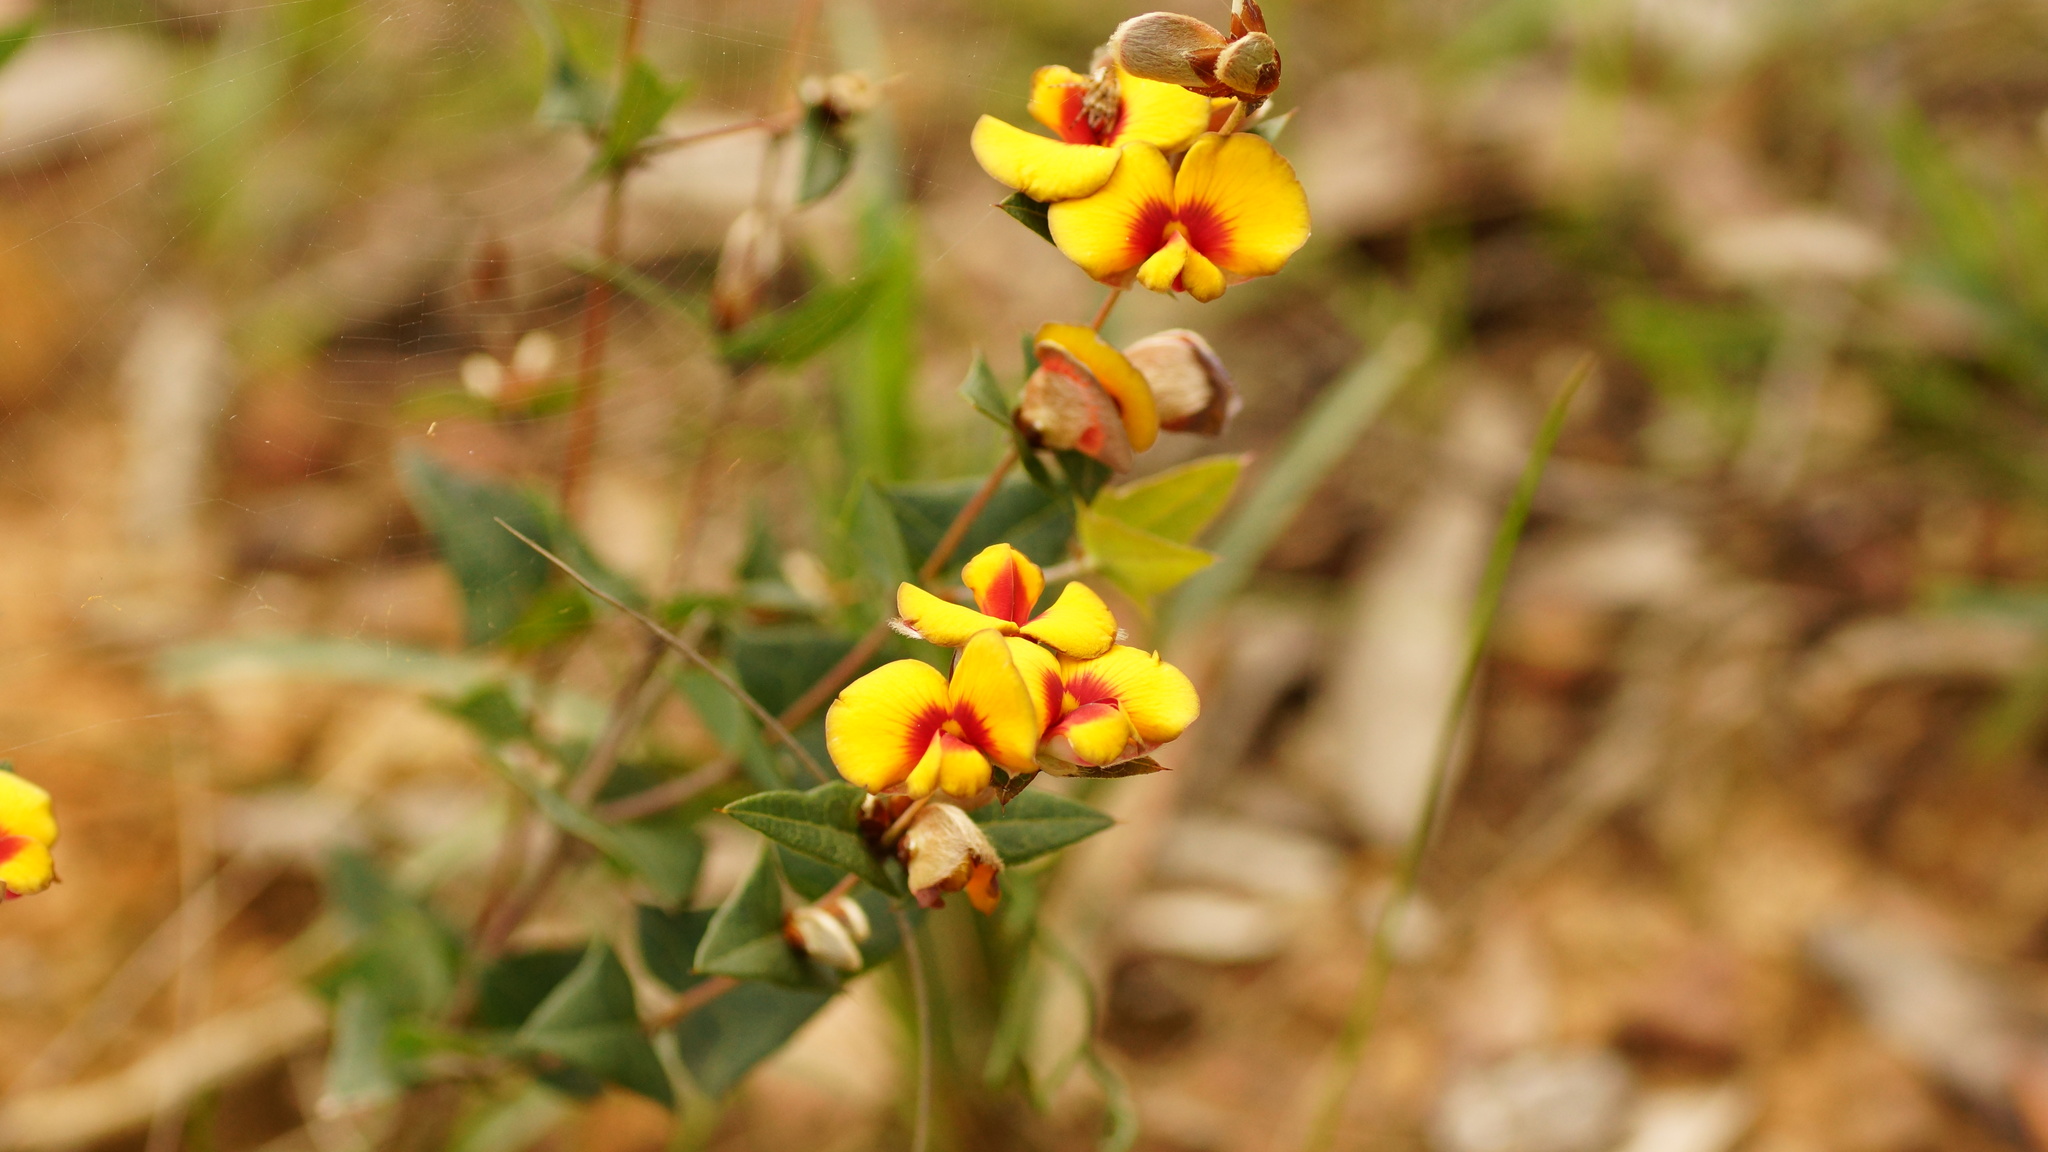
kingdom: Plantae
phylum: Tracheophyta
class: Magnoliopsida
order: Fabales
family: Fabaceae
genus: Platylobium
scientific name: Platylobium obtusangulum
